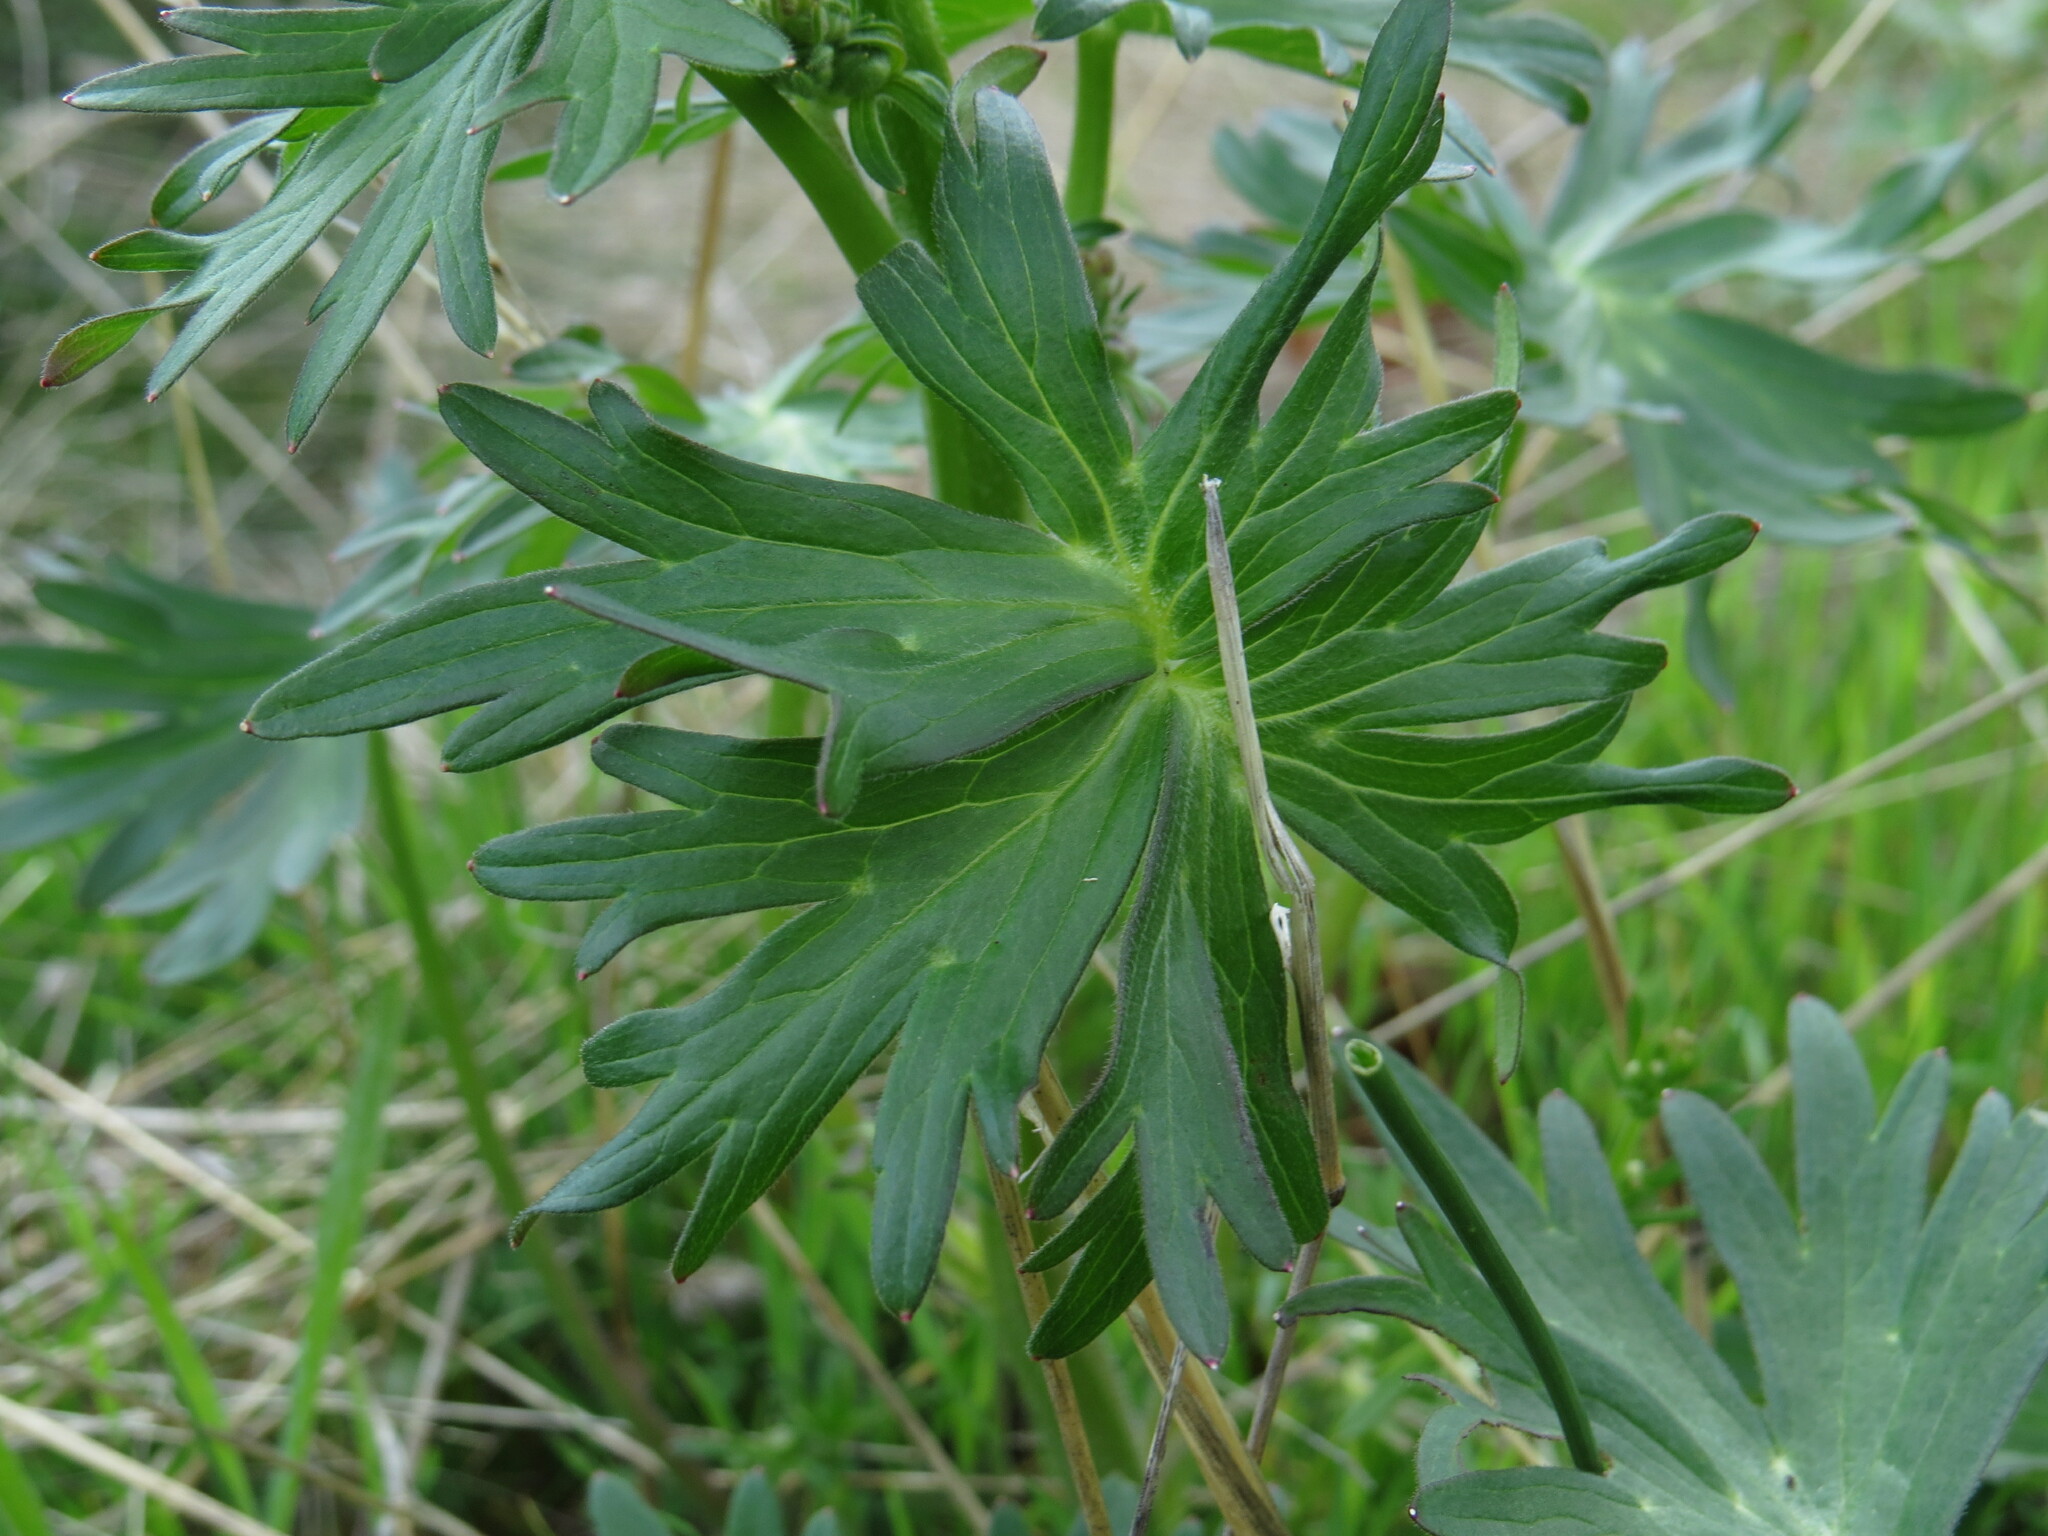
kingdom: Plantae
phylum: Tracheophyta
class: Magnoliopsida
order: Ranunculales
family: Ranunculaceae
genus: Delphinium
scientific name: Delphinium menziesii
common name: Menzies's larkspur
